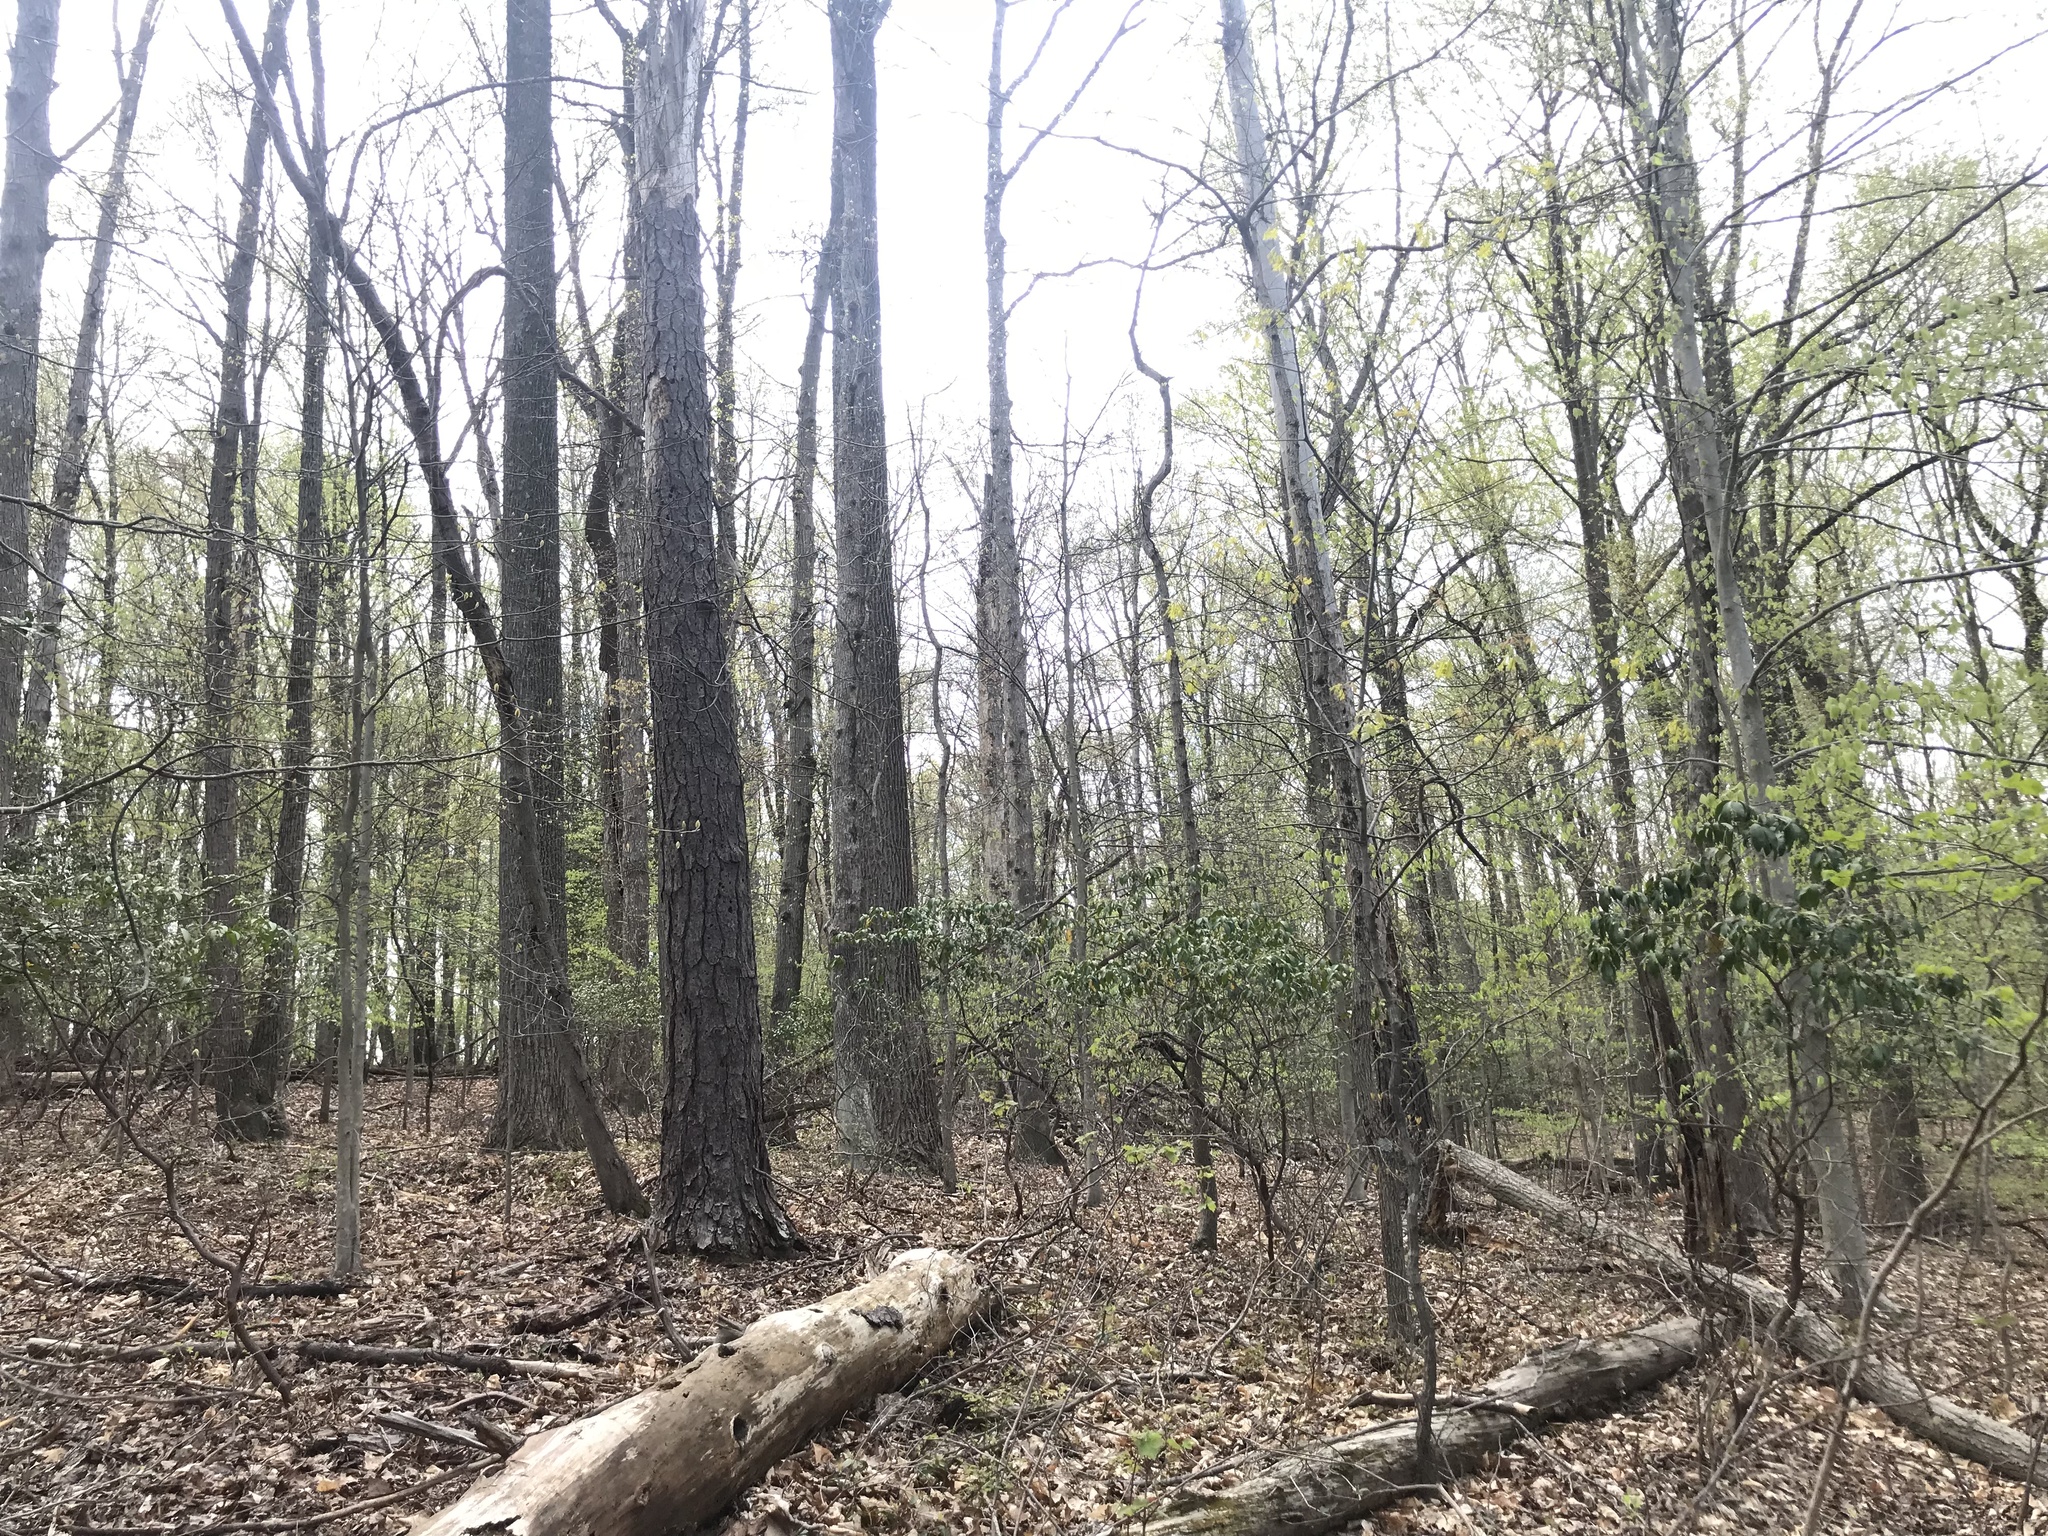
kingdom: Plantae
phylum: Tracheophyta
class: Magnoliopsida
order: Ericales
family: Ericaceae
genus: Kalmia
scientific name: Kalmia latifolia
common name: Mountain-laurel
